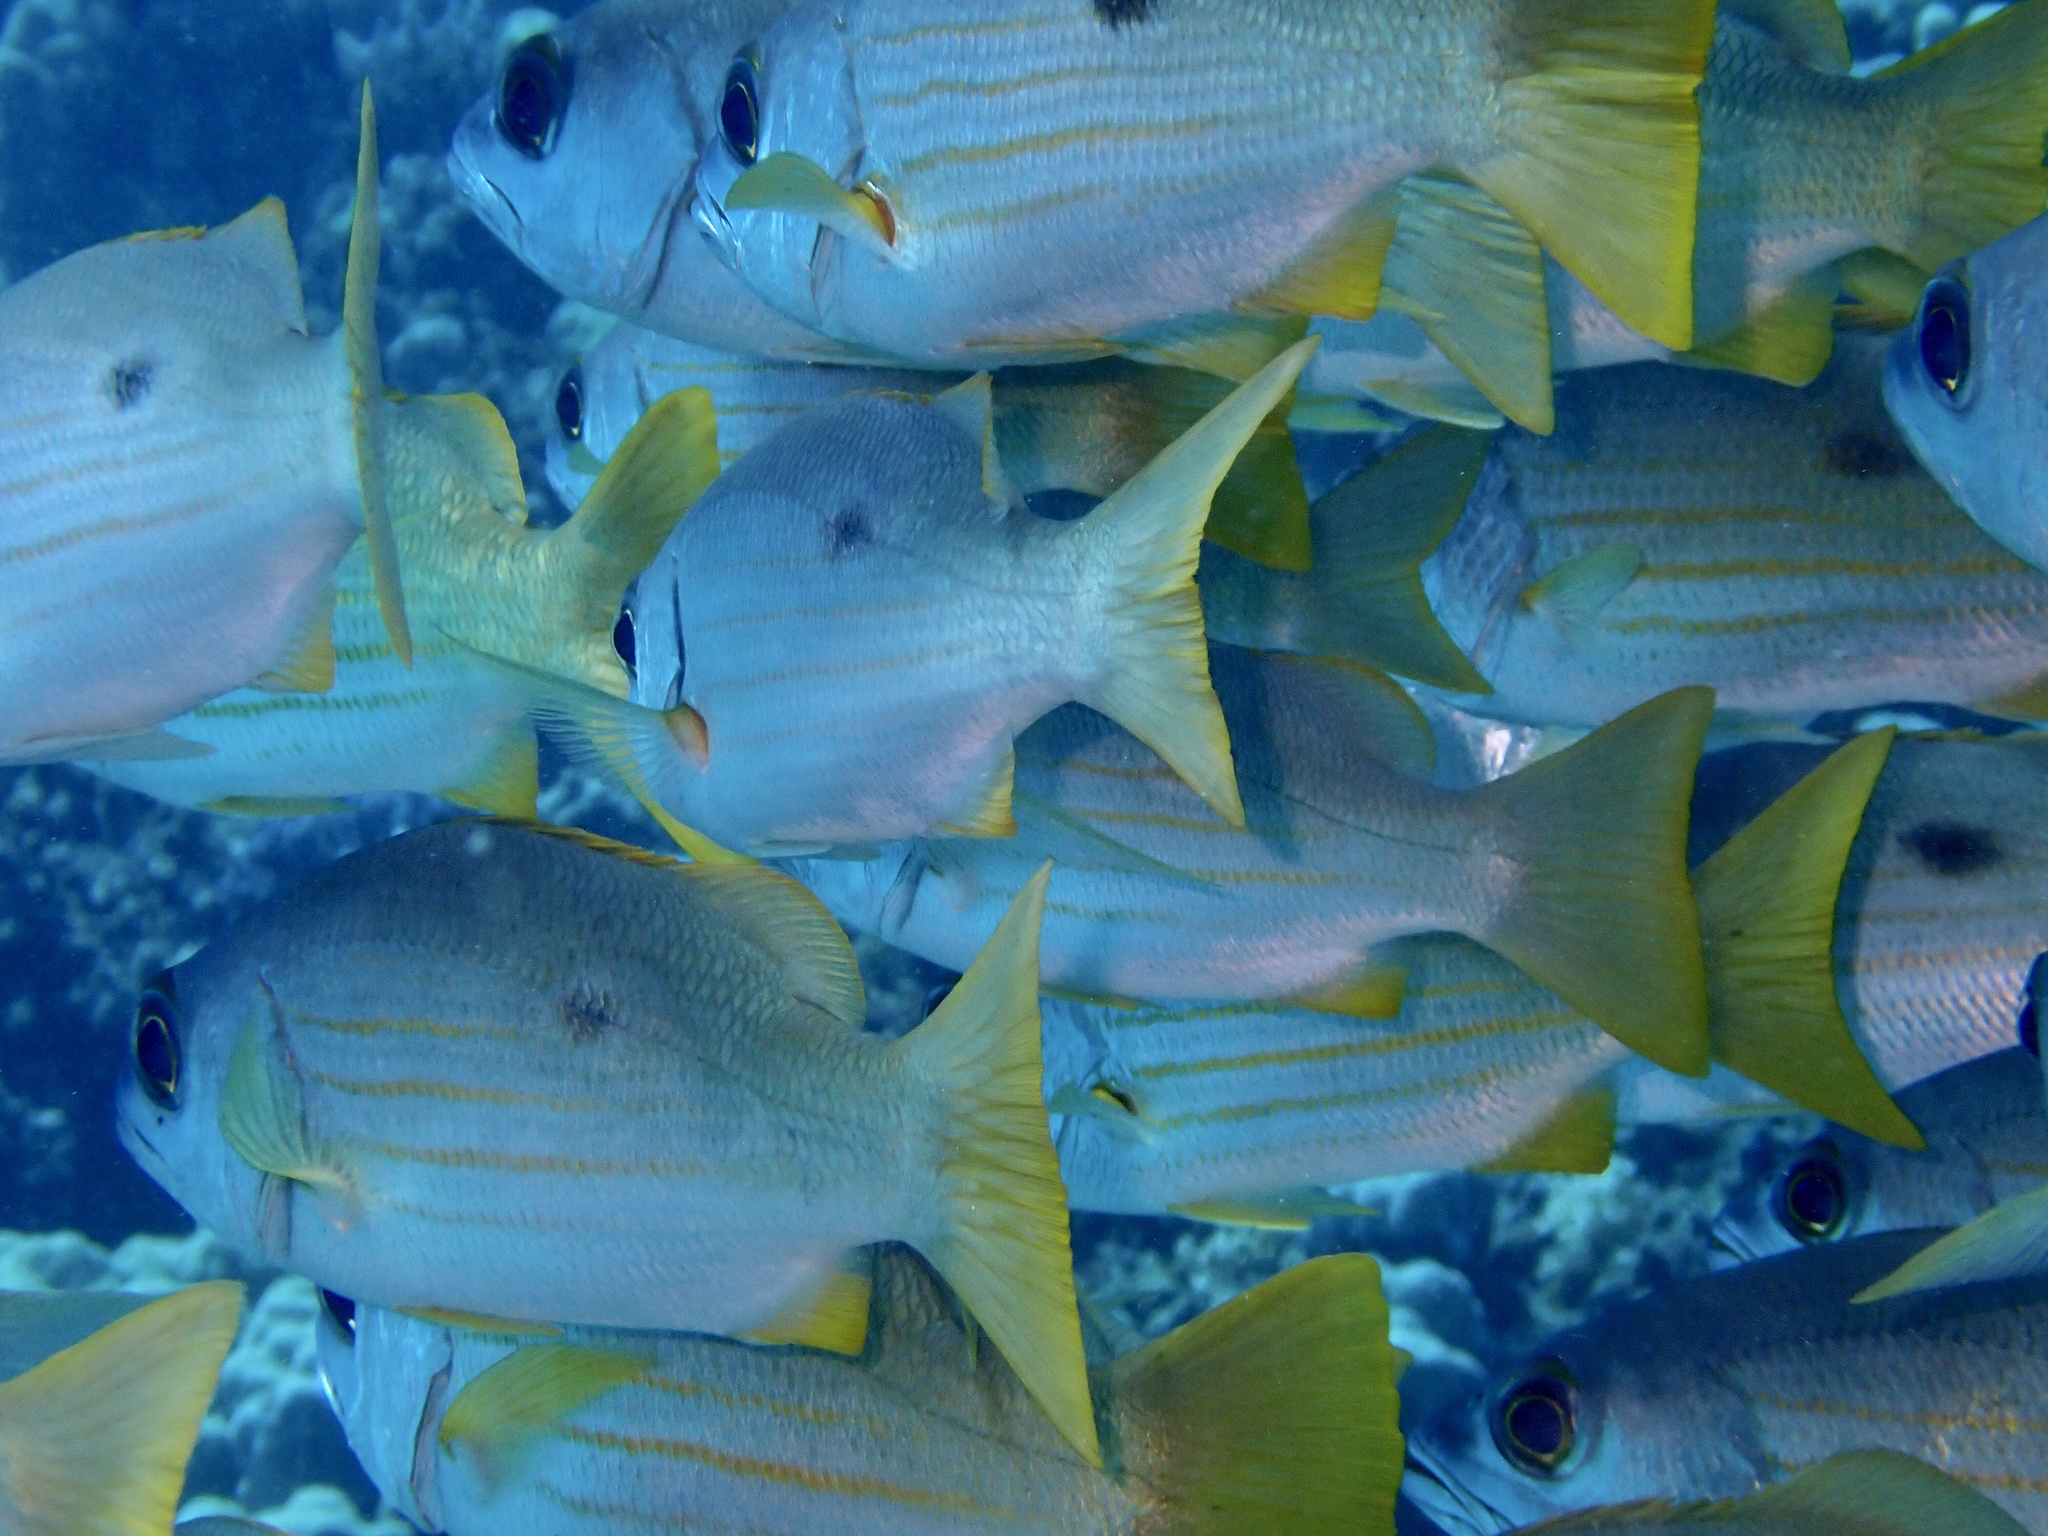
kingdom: Animalia
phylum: Chordata
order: Perciformes
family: Lutjanidae
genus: Lutjanus
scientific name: Lutjanus ehrenbergii
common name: Blackspot snapper
